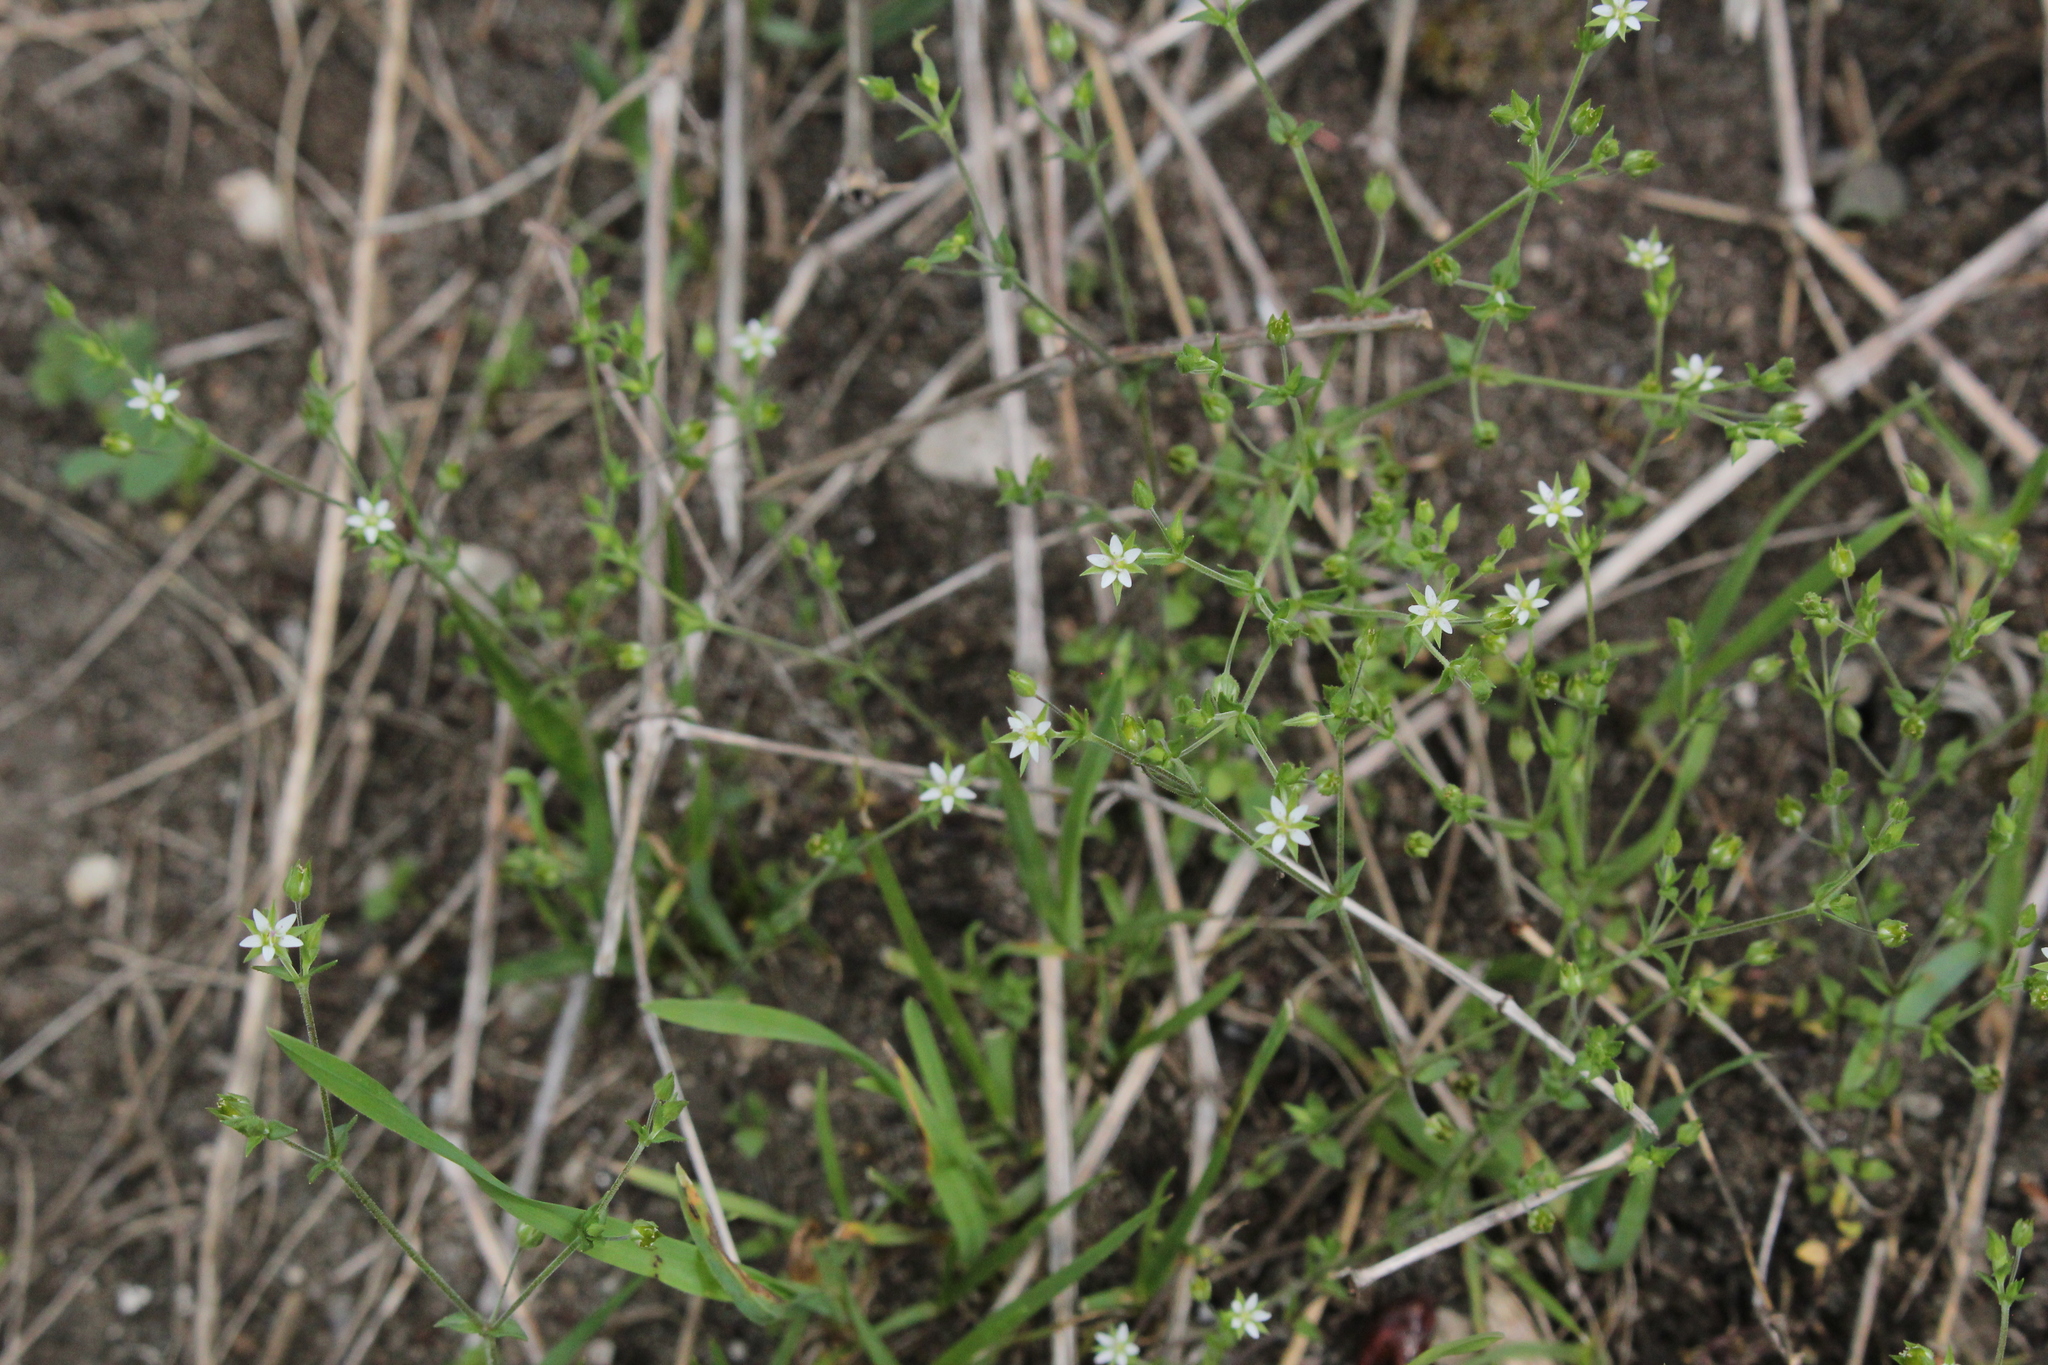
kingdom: Plantae
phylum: Tracheophyta
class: Magnoliopsida
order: Caryophyllales
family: Caryophyllaceae
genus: Arenaria
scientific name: Arenaria serpyllifolia
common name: Thyme-leaved sandwort
